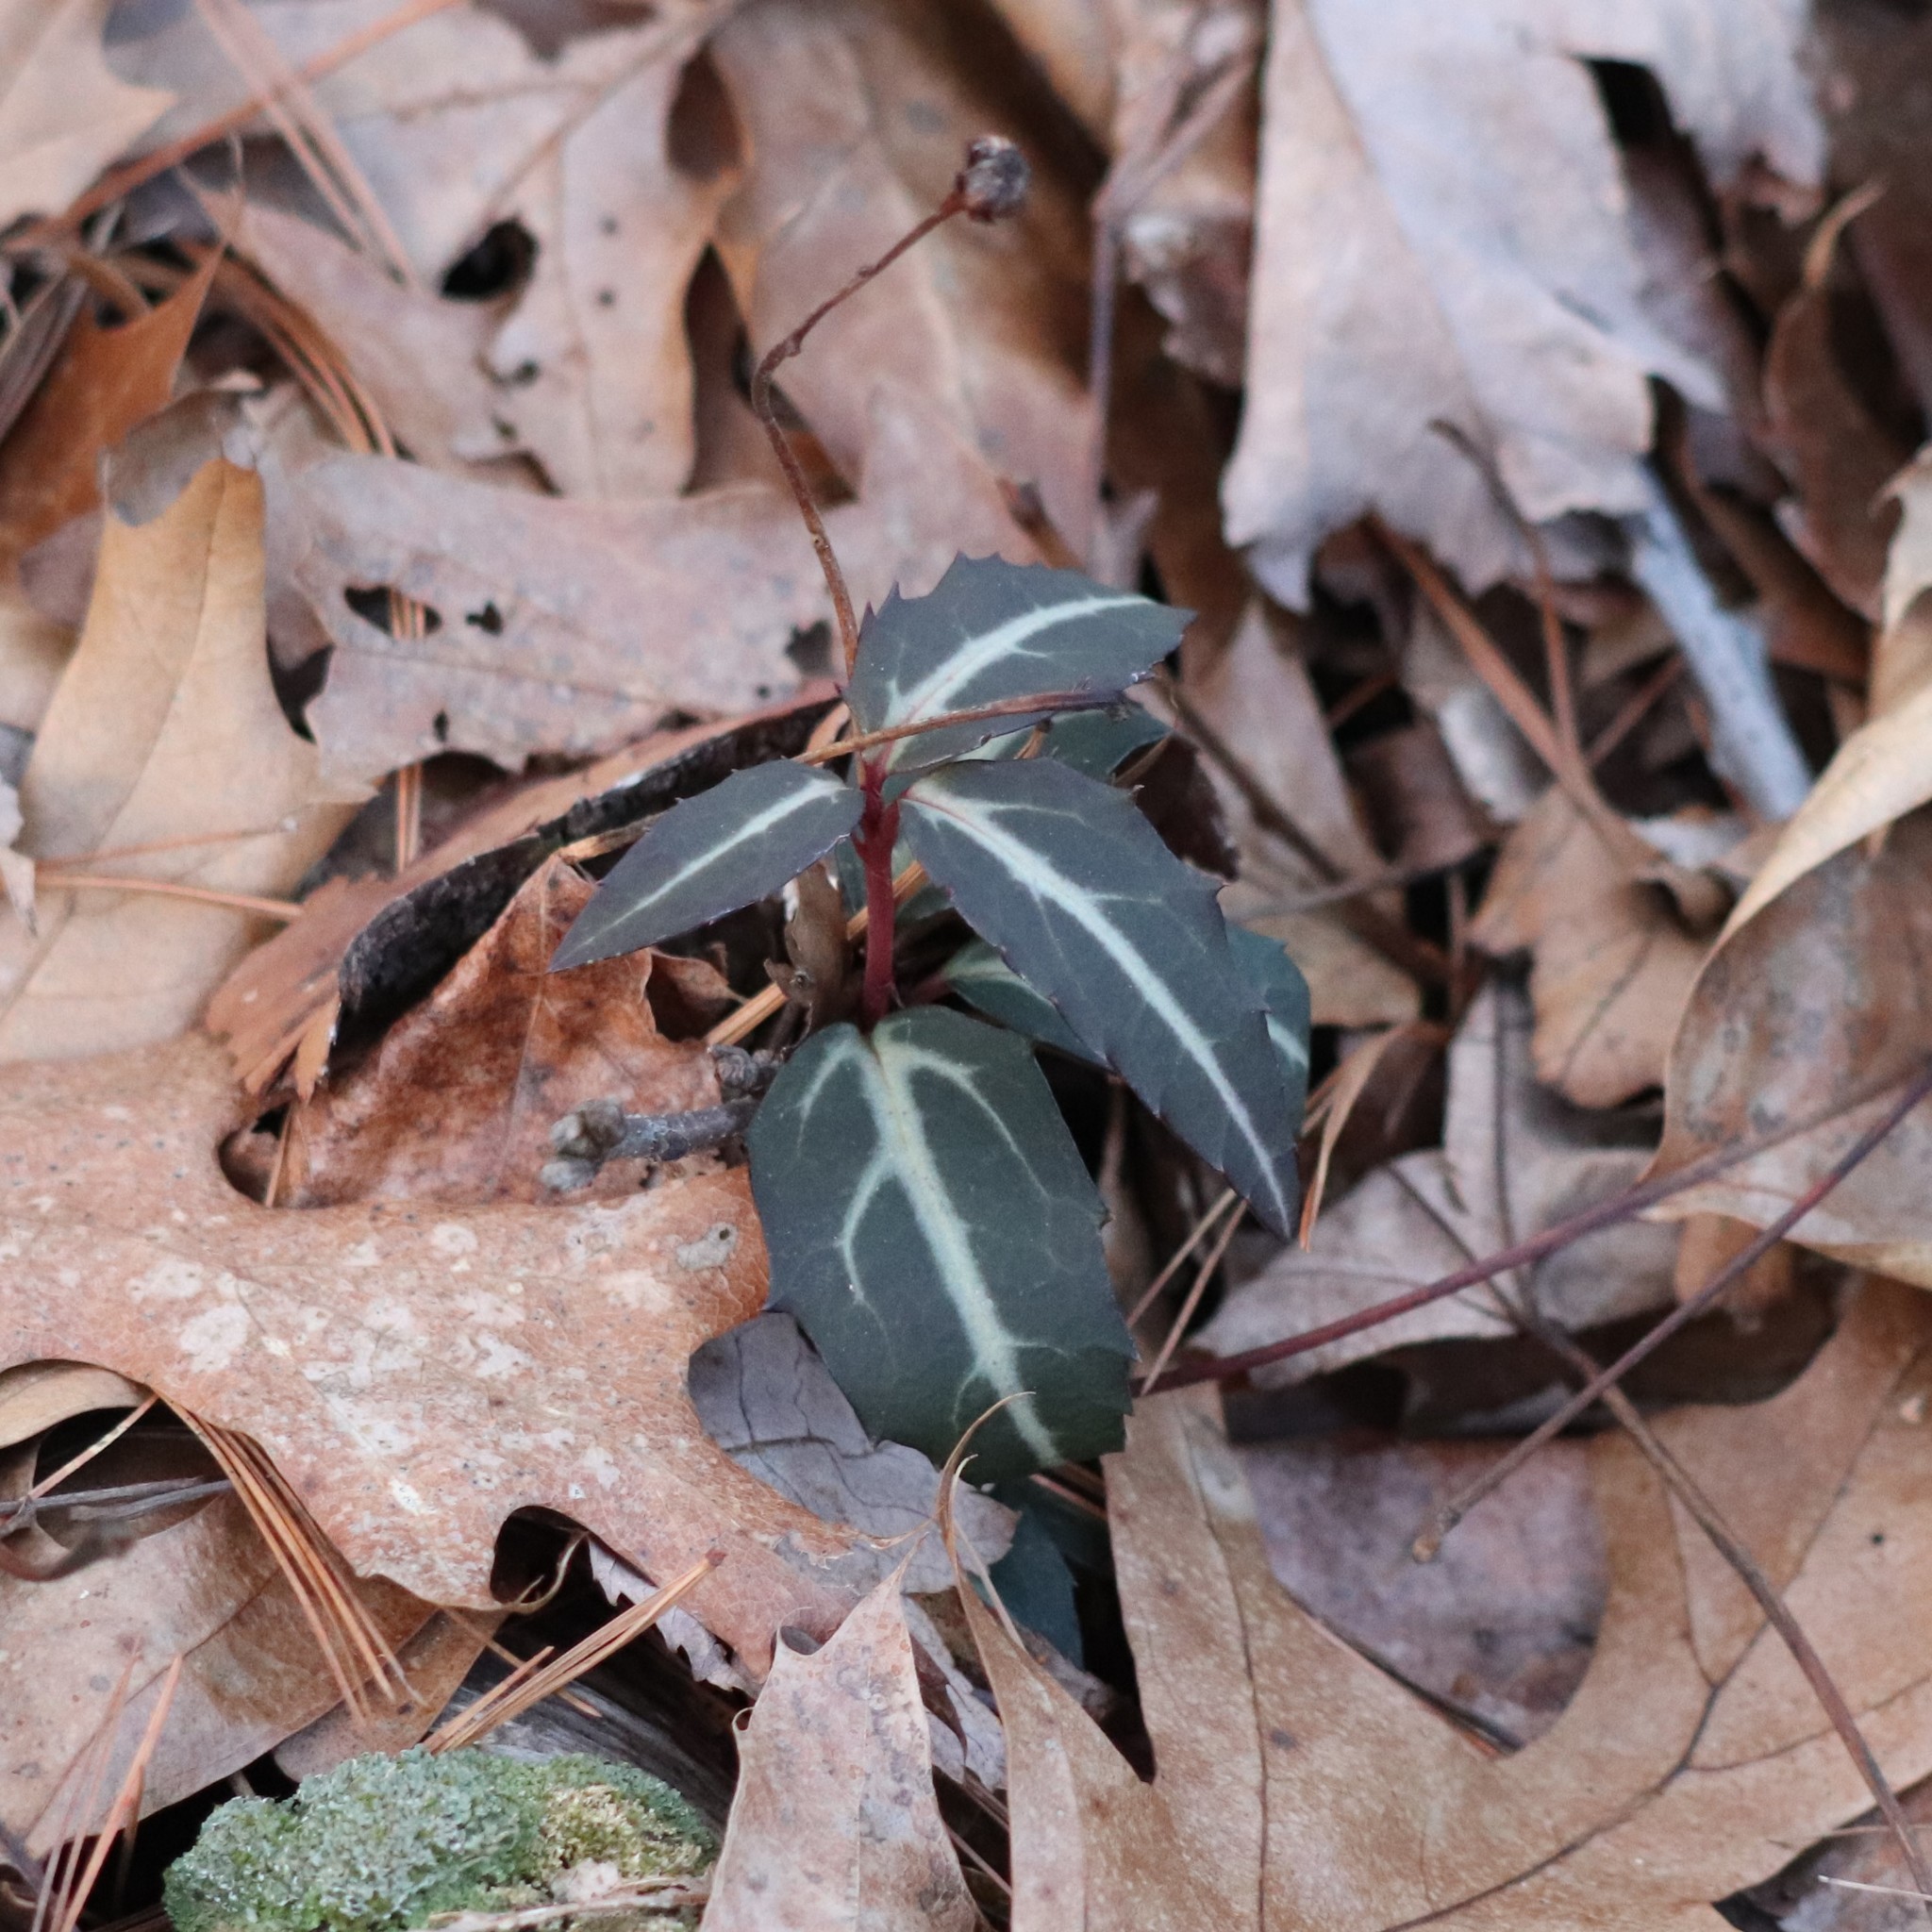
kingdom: Plantae
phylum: Tracheophyta
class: Magnoliopsida
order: Ericales
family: Ericaceae
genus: Chimaphila
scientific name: Chimaphila maculata
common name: Spotted pipsissewa
